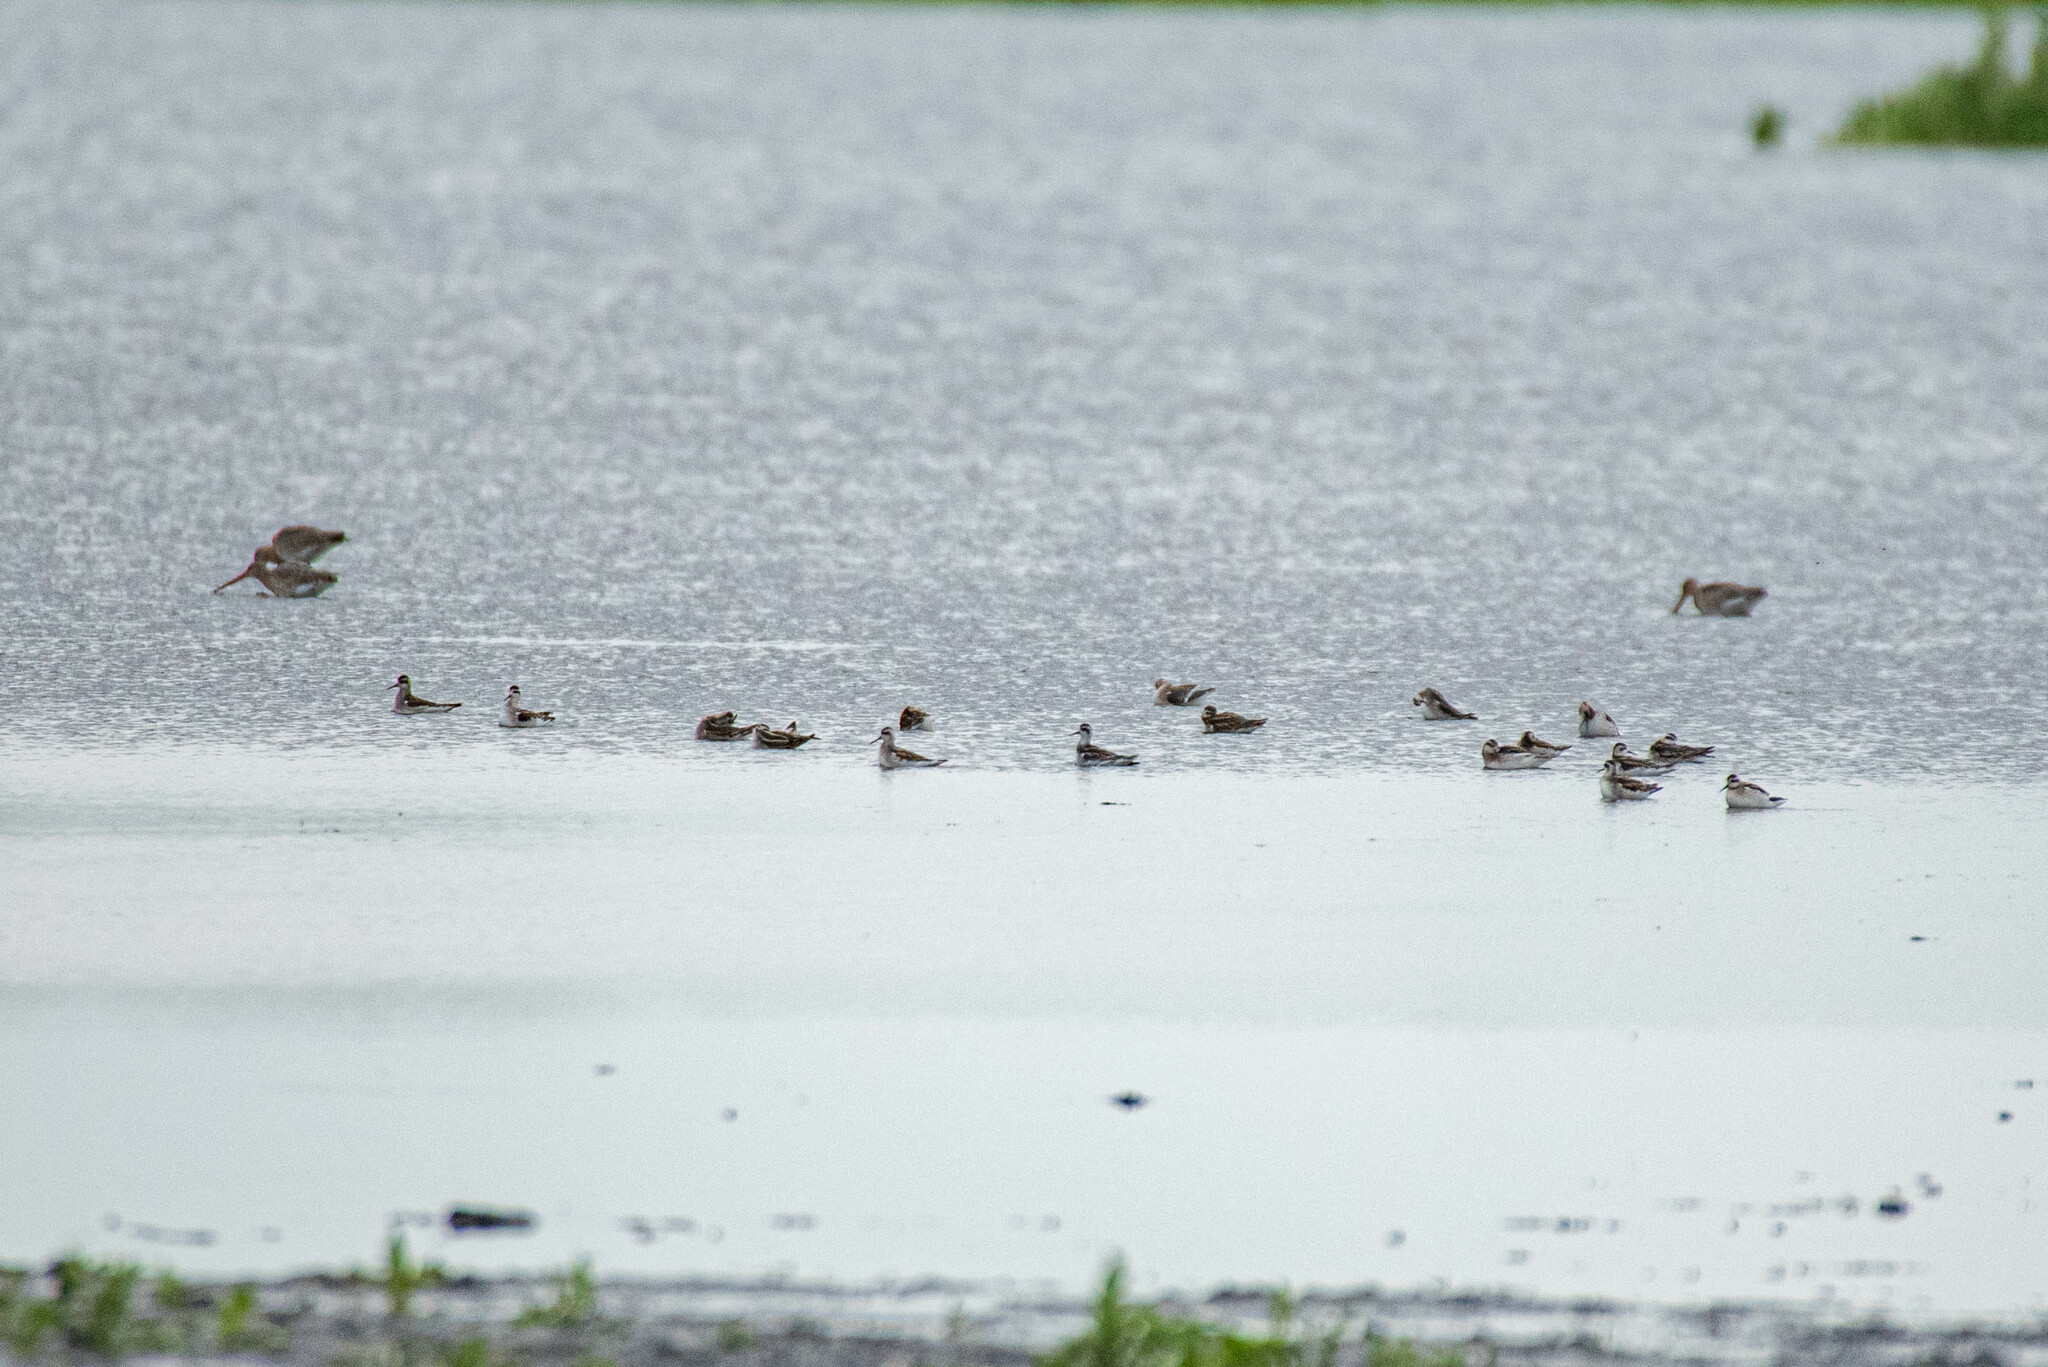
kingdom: Animalia
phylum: Chordata
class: Aves
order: Charadriiformes
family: Scolopacidae
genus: Phalaropus
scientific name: Phalaropus lobatus
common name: Red-necked phalarope
